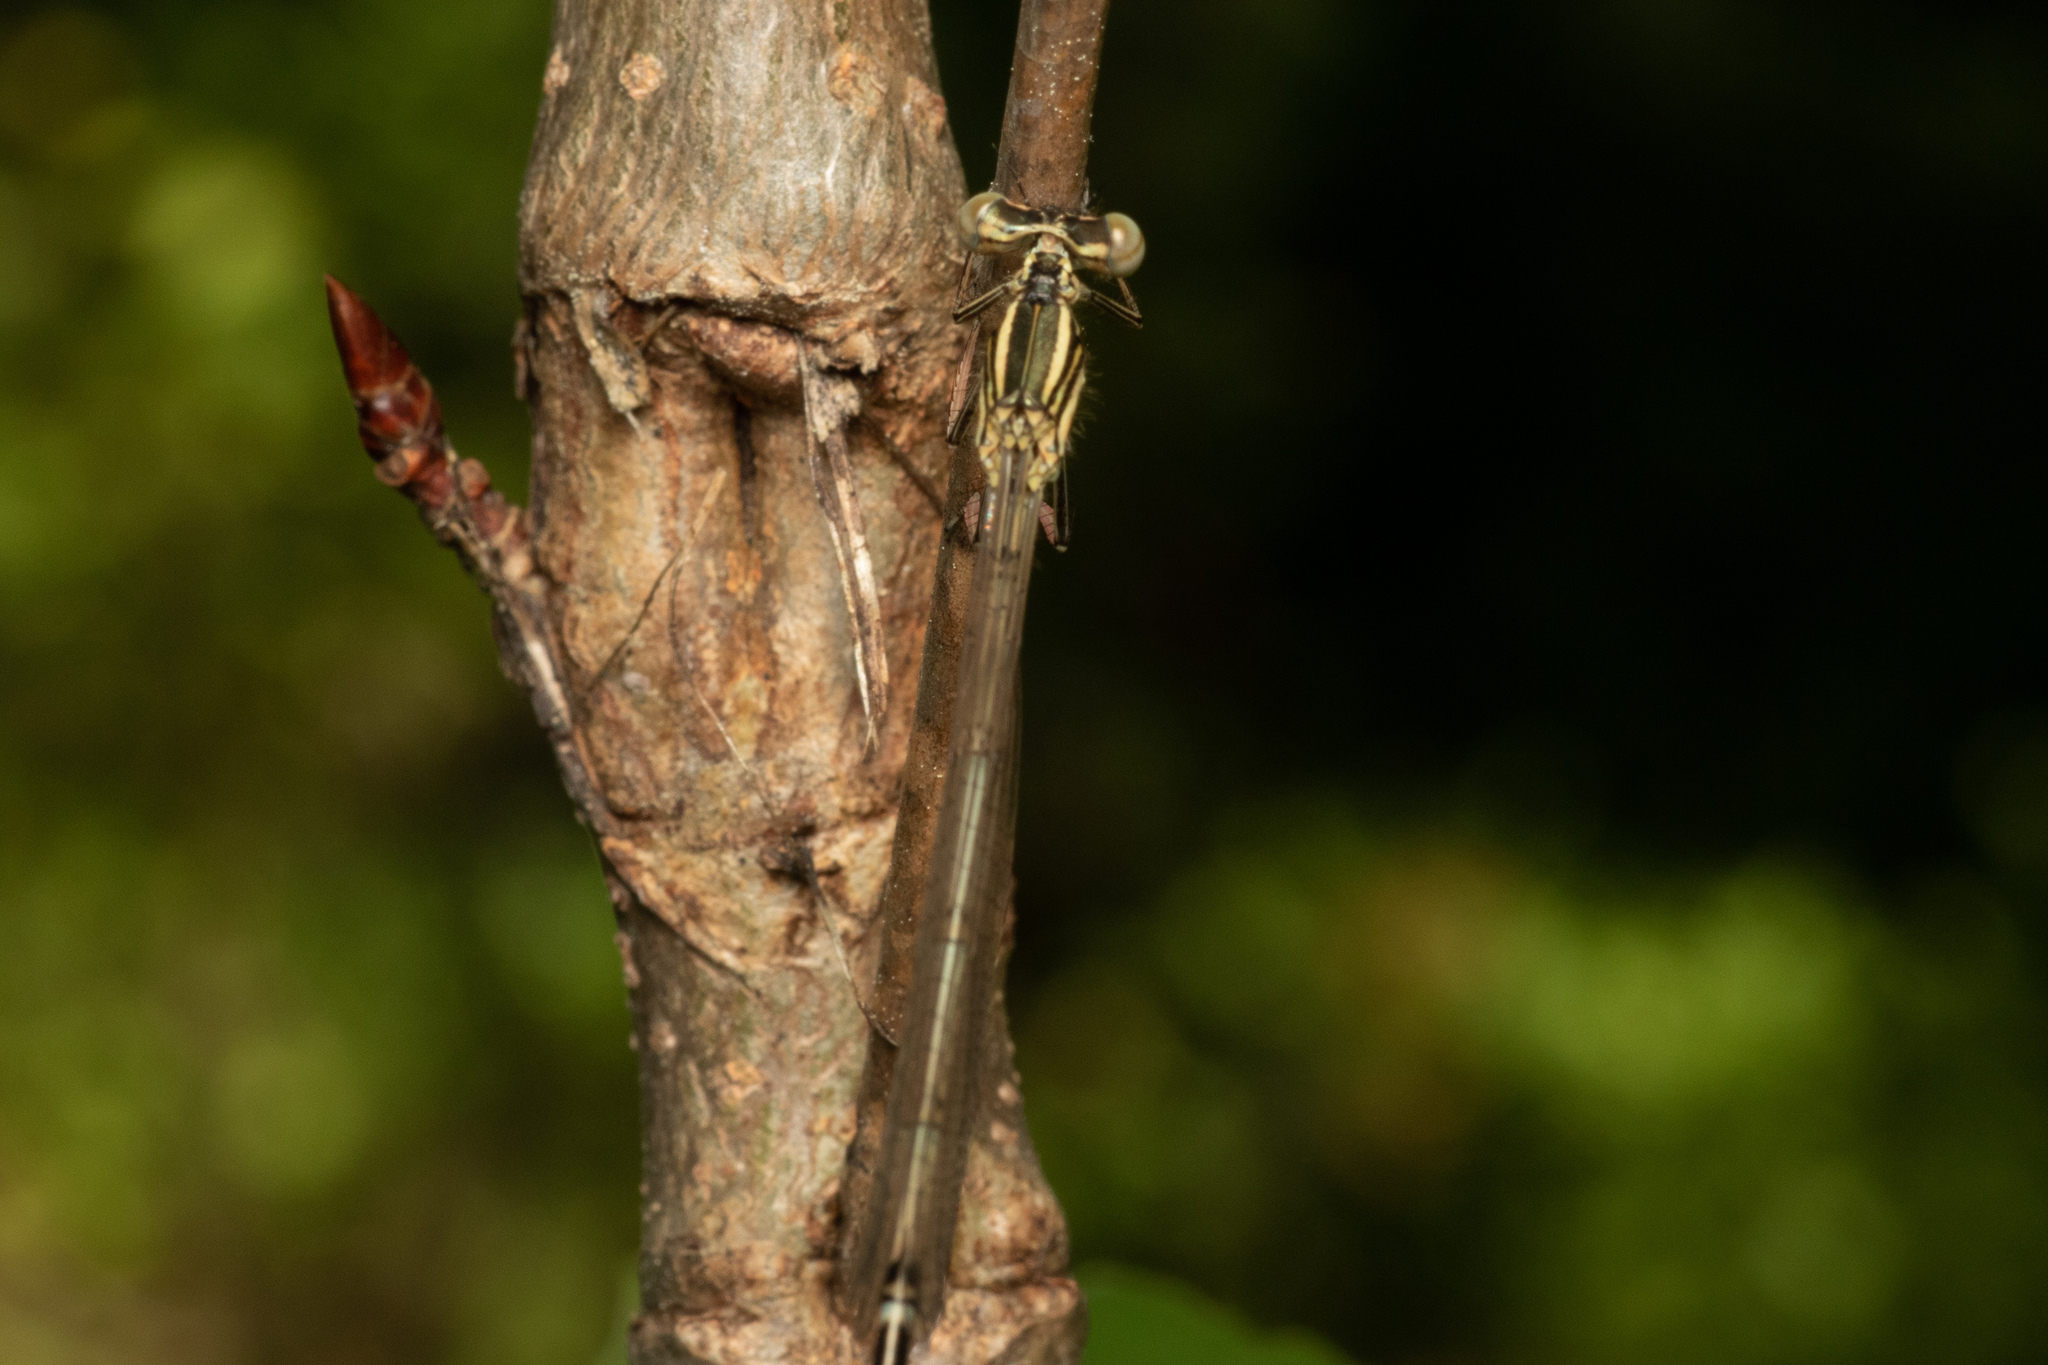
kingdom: Animalia
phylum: Arthropoda
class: Insecta
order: Odonata
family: Platycnemididae
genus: Platycnemis
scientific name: Platycnemis pennipes
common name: White-legged damselfly
